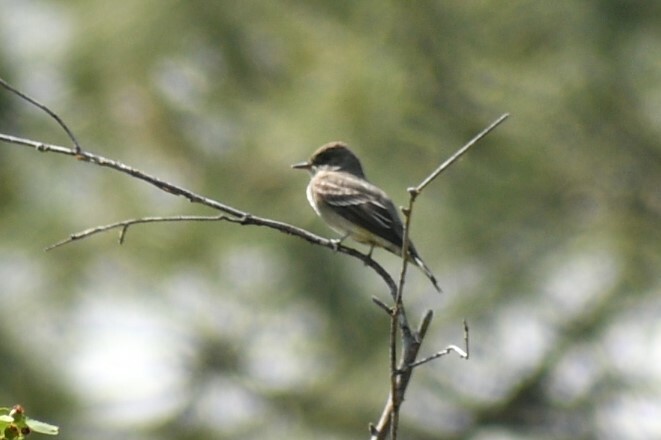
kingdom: Animalia
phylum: Chordata
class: Aves
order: Passeriformes
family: Tyrannidae
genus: Contopus
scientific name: Contopus sordidulus
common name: Western wood-pewee
